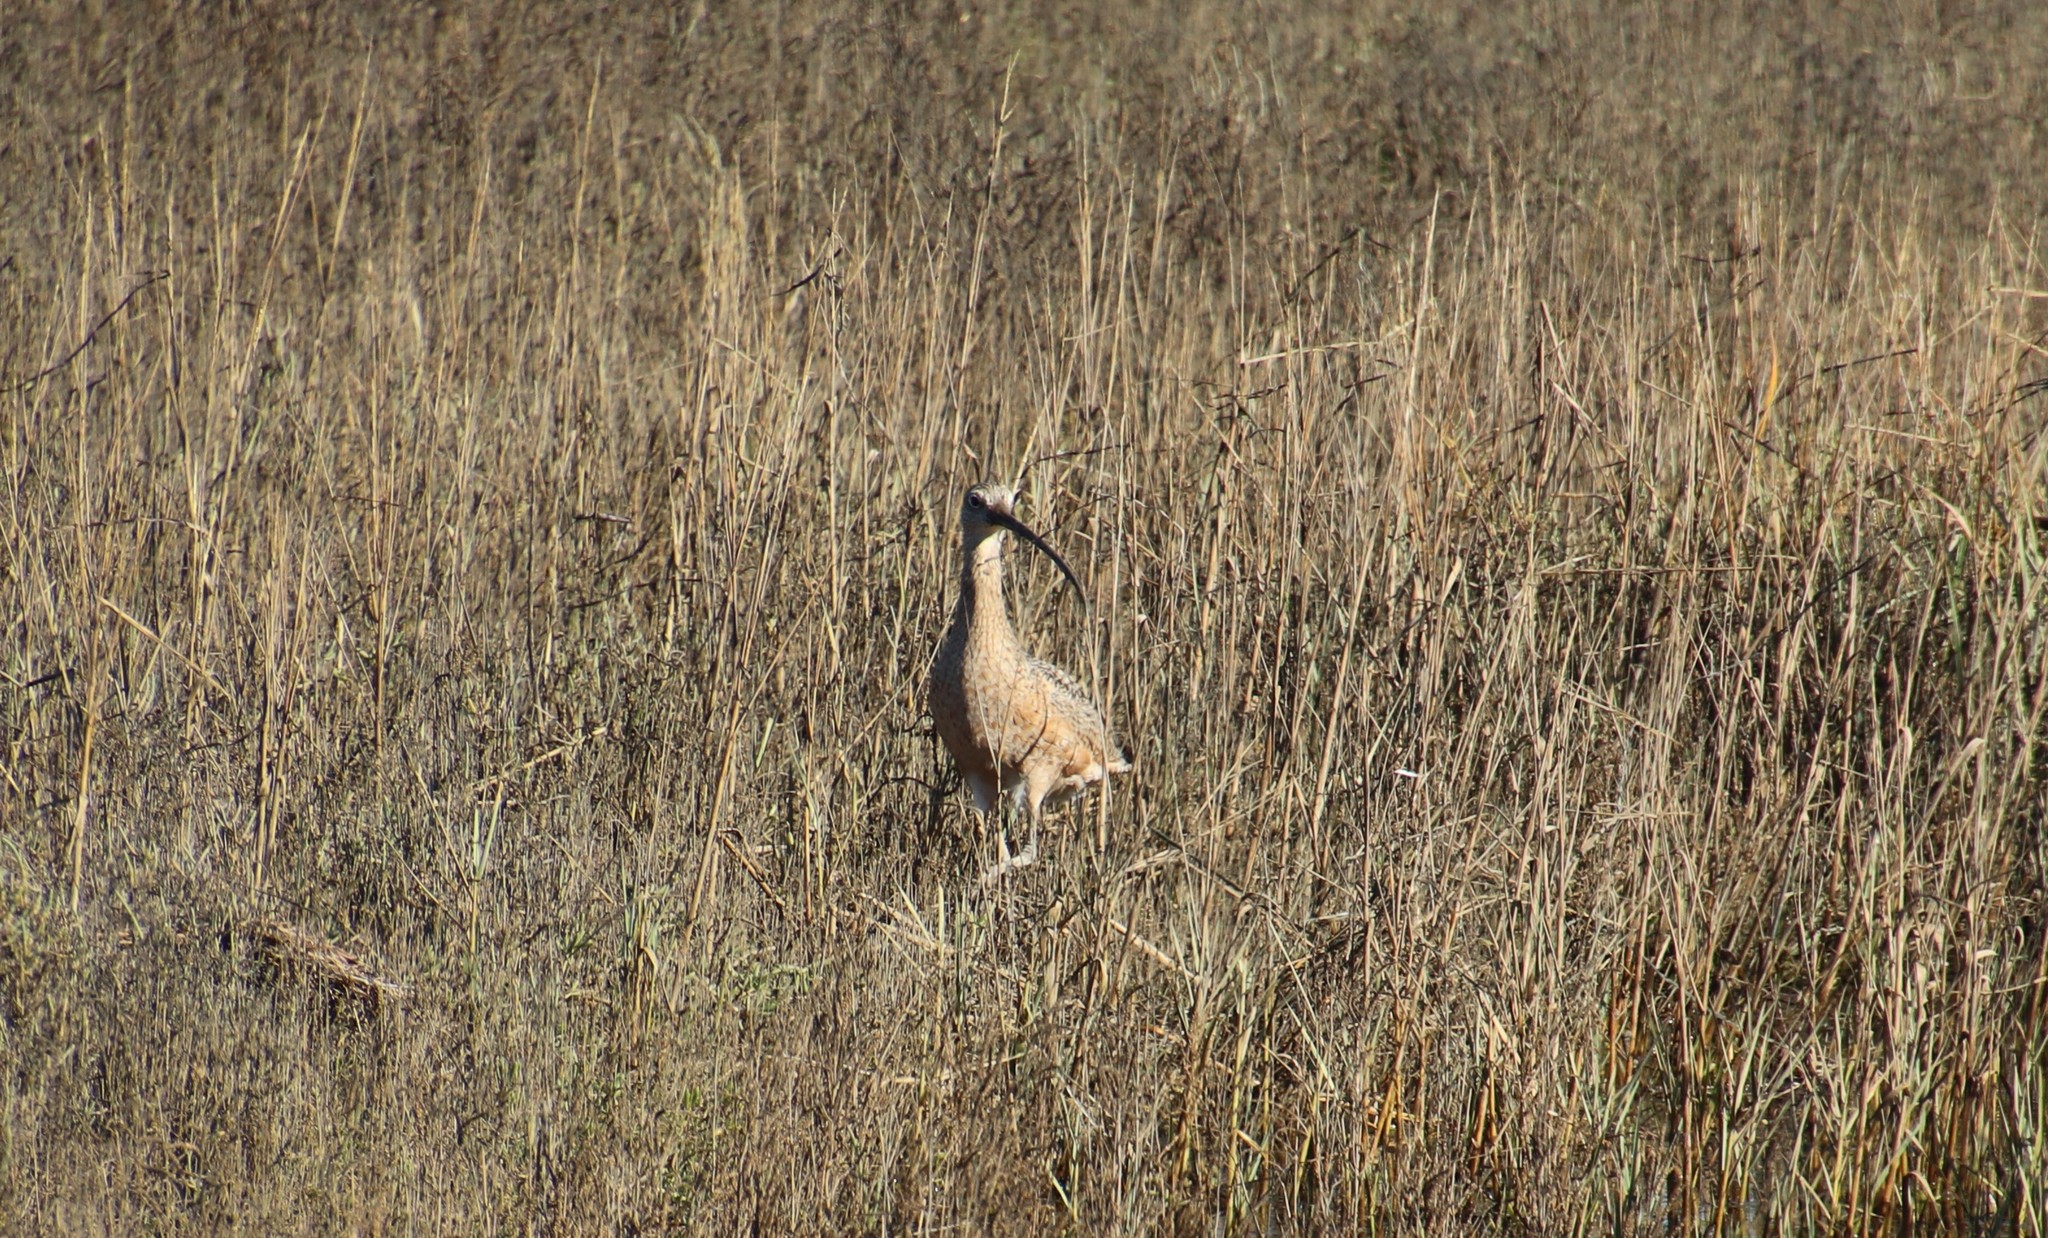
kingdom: Animalia
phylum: Chordata
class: Aves
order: Charadriiformes
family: Scolopacidae
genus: Numenius
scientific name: Numenius americanus
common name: Long-billed curlew
